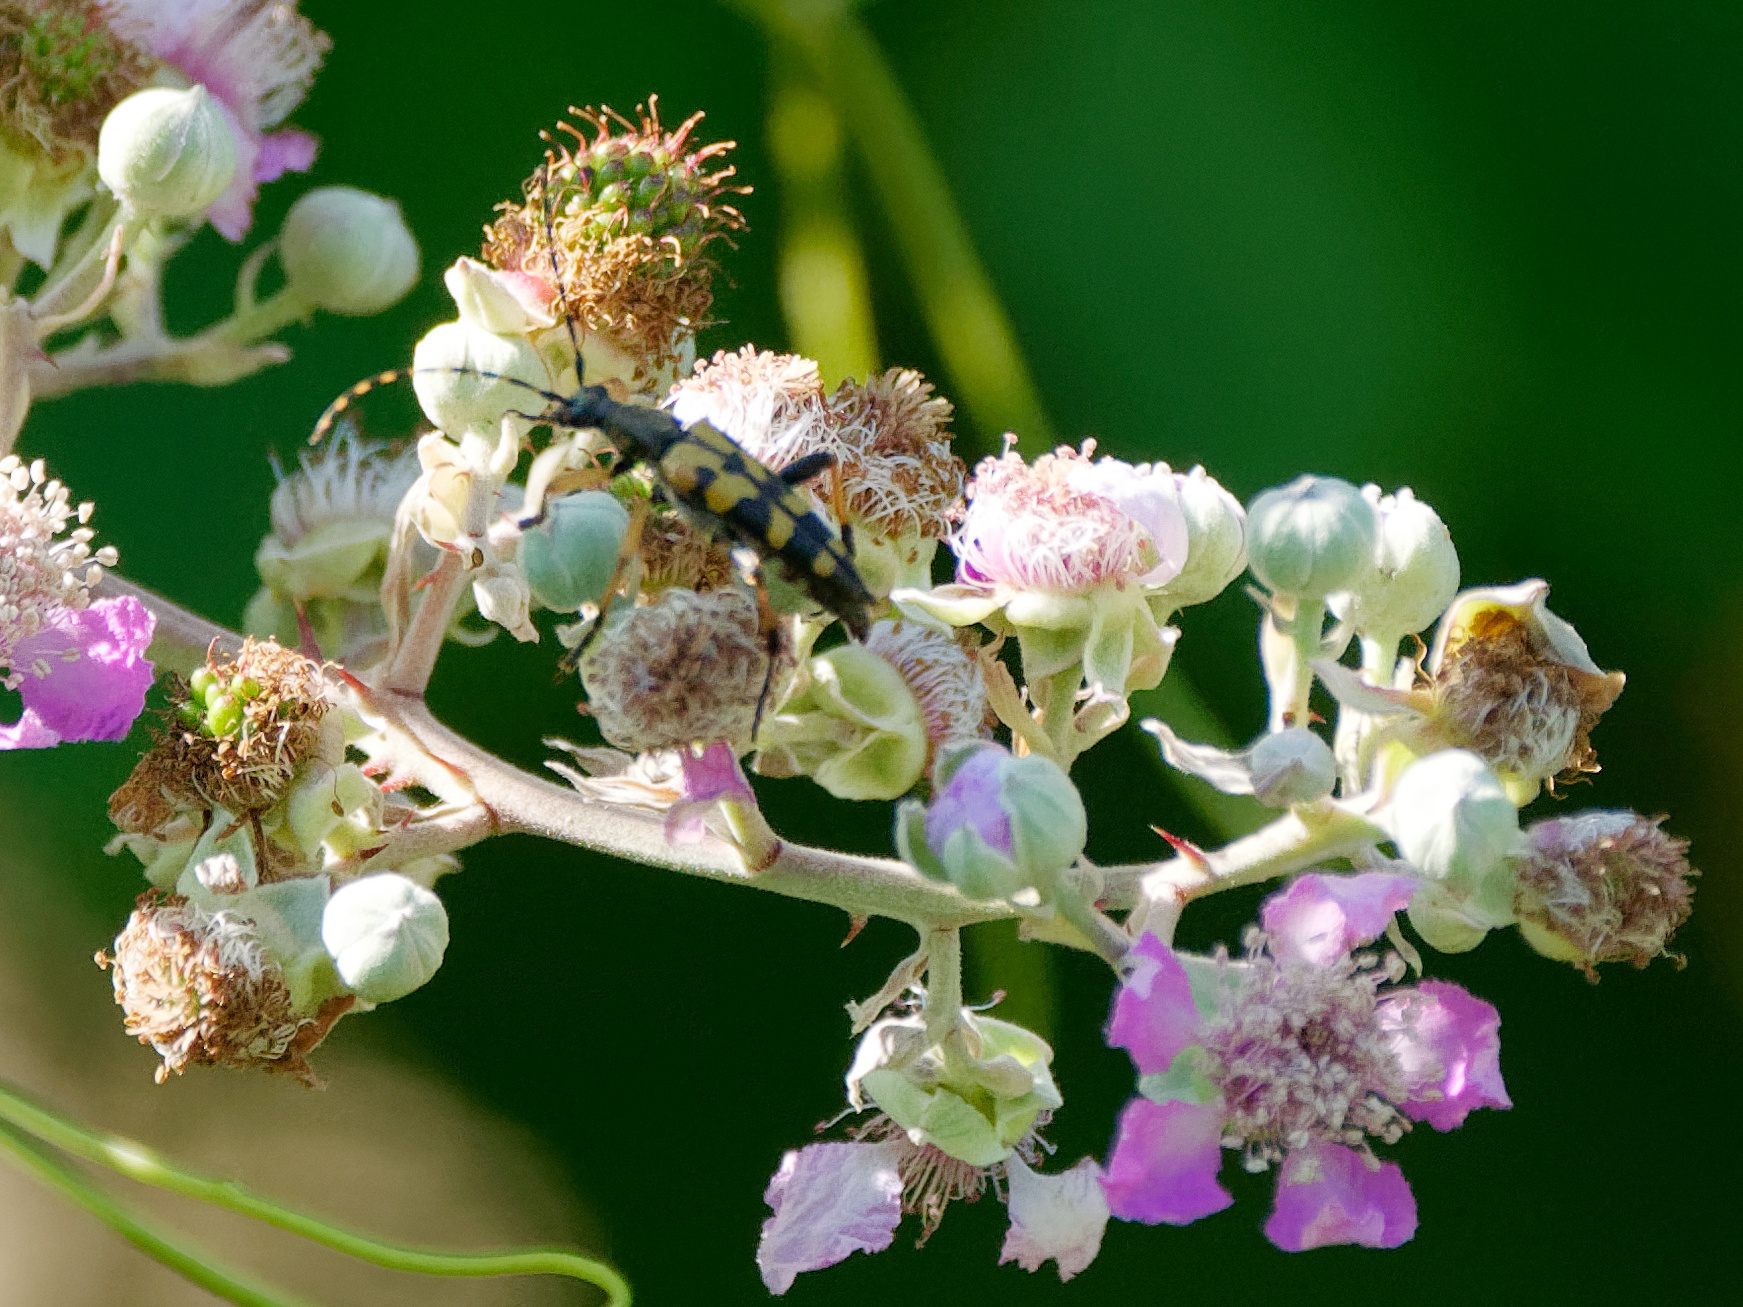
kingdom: Animalia
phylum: Arthropoda
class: Insecta
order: Coleoptera
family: Cerambycidae
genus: Rutpela
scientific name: Rutpela maculata
